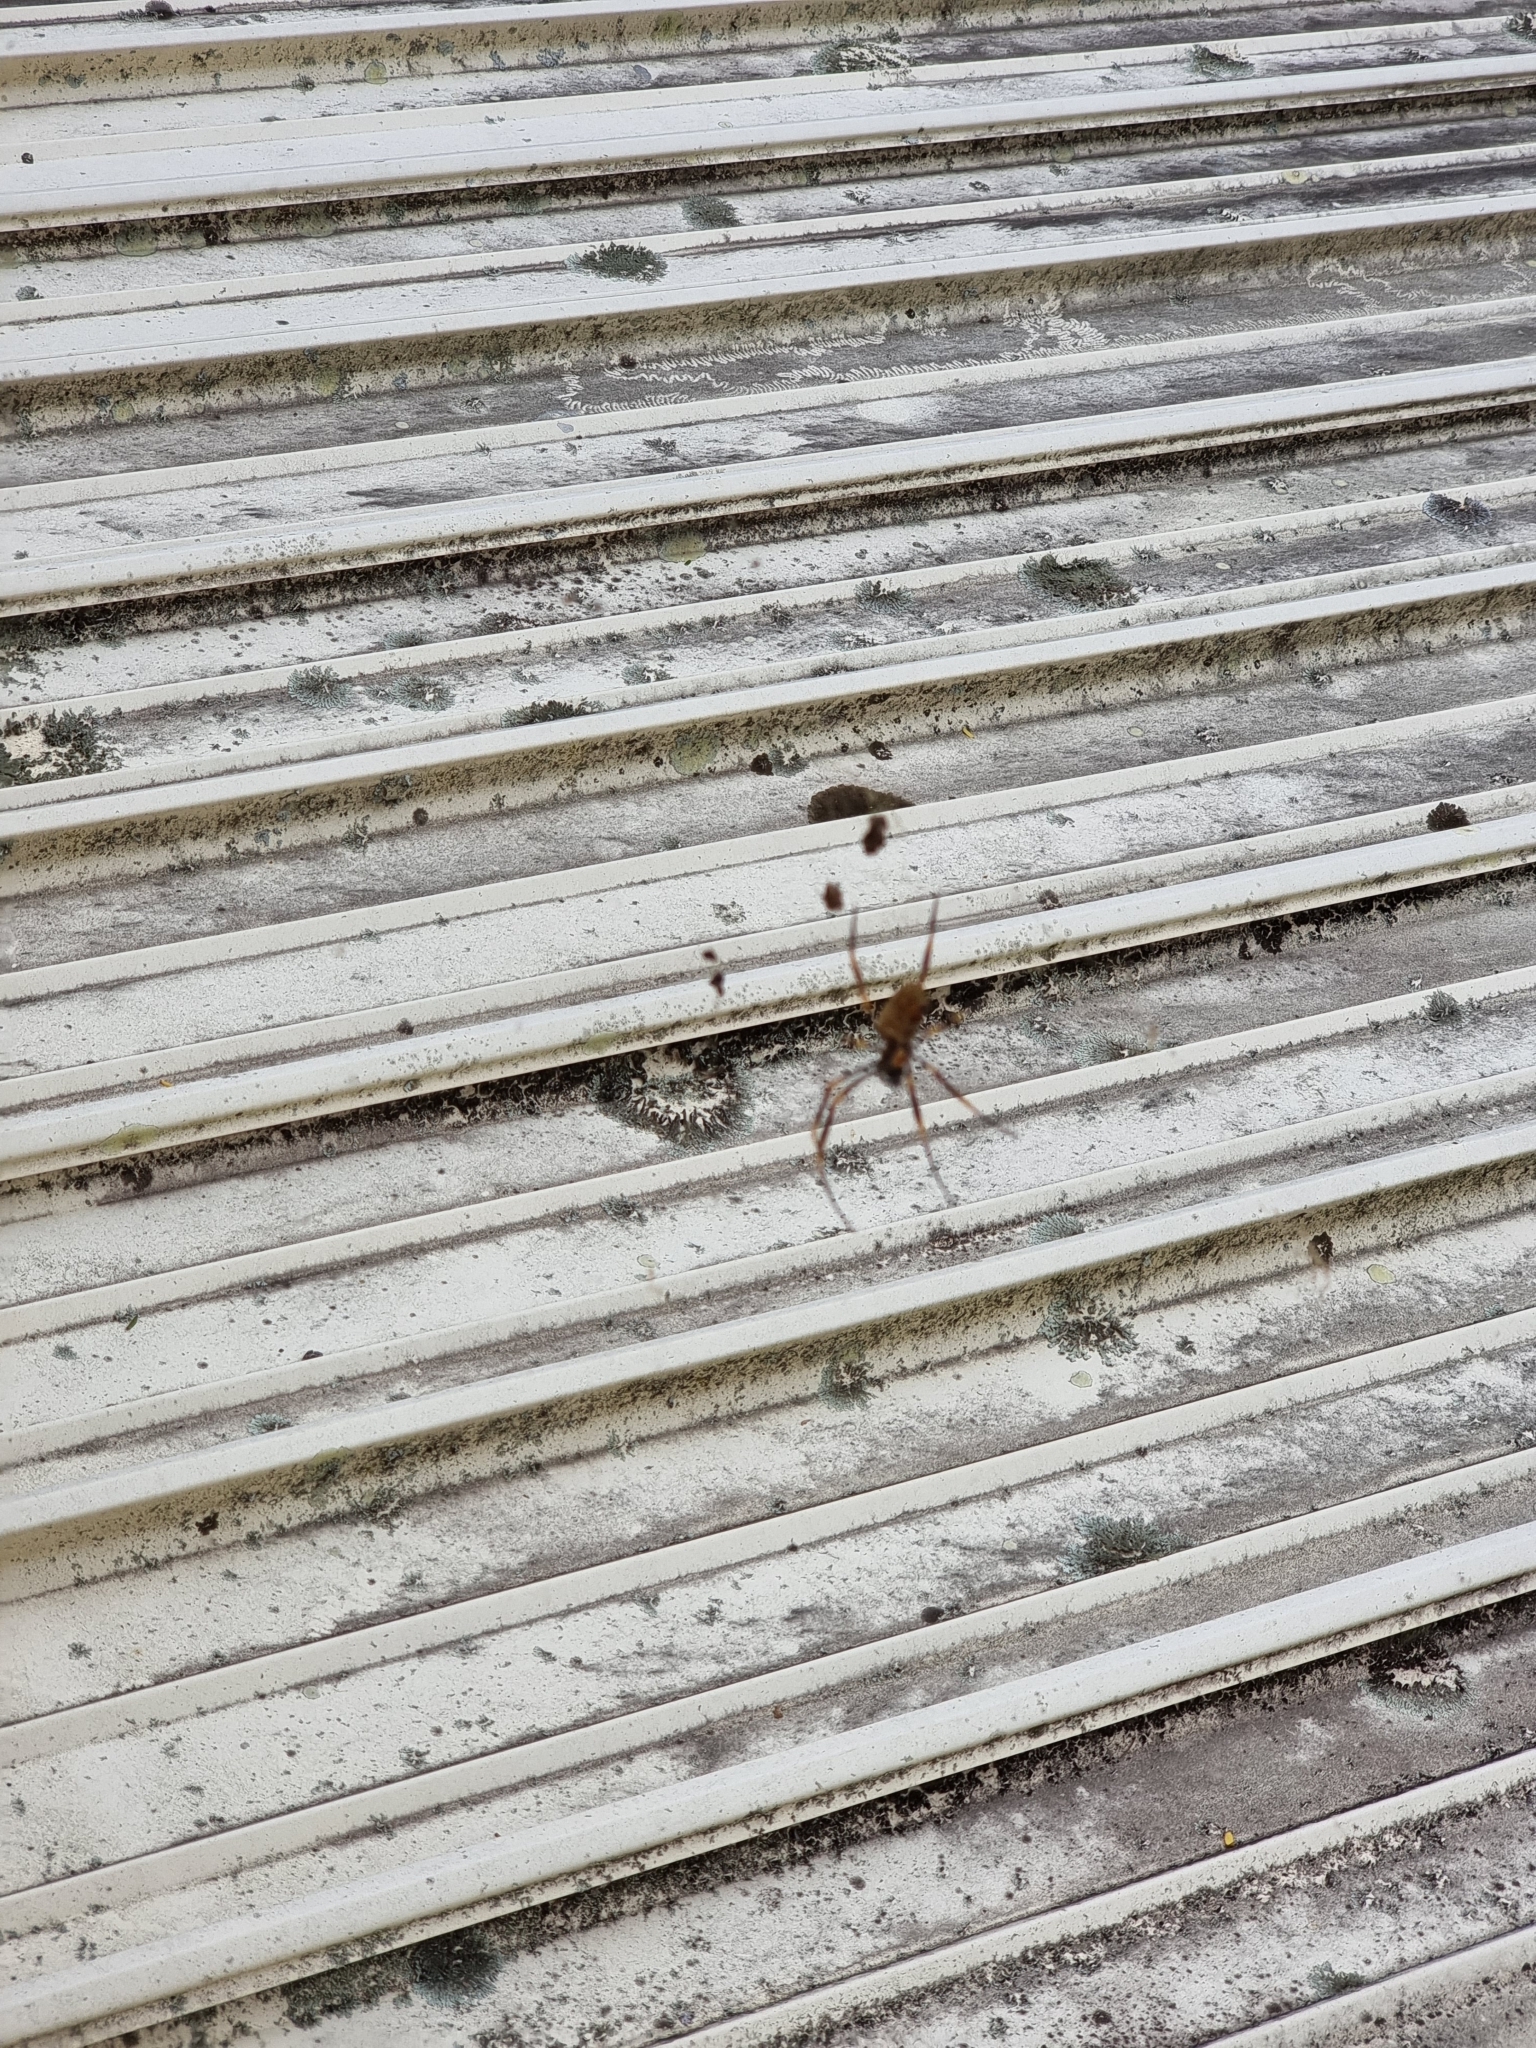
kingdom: Animalia
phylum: Arthropoda
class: Arachnida
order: Araneae
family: Araneidae
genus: Trichonephila
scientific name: Trichonephila plumipes
